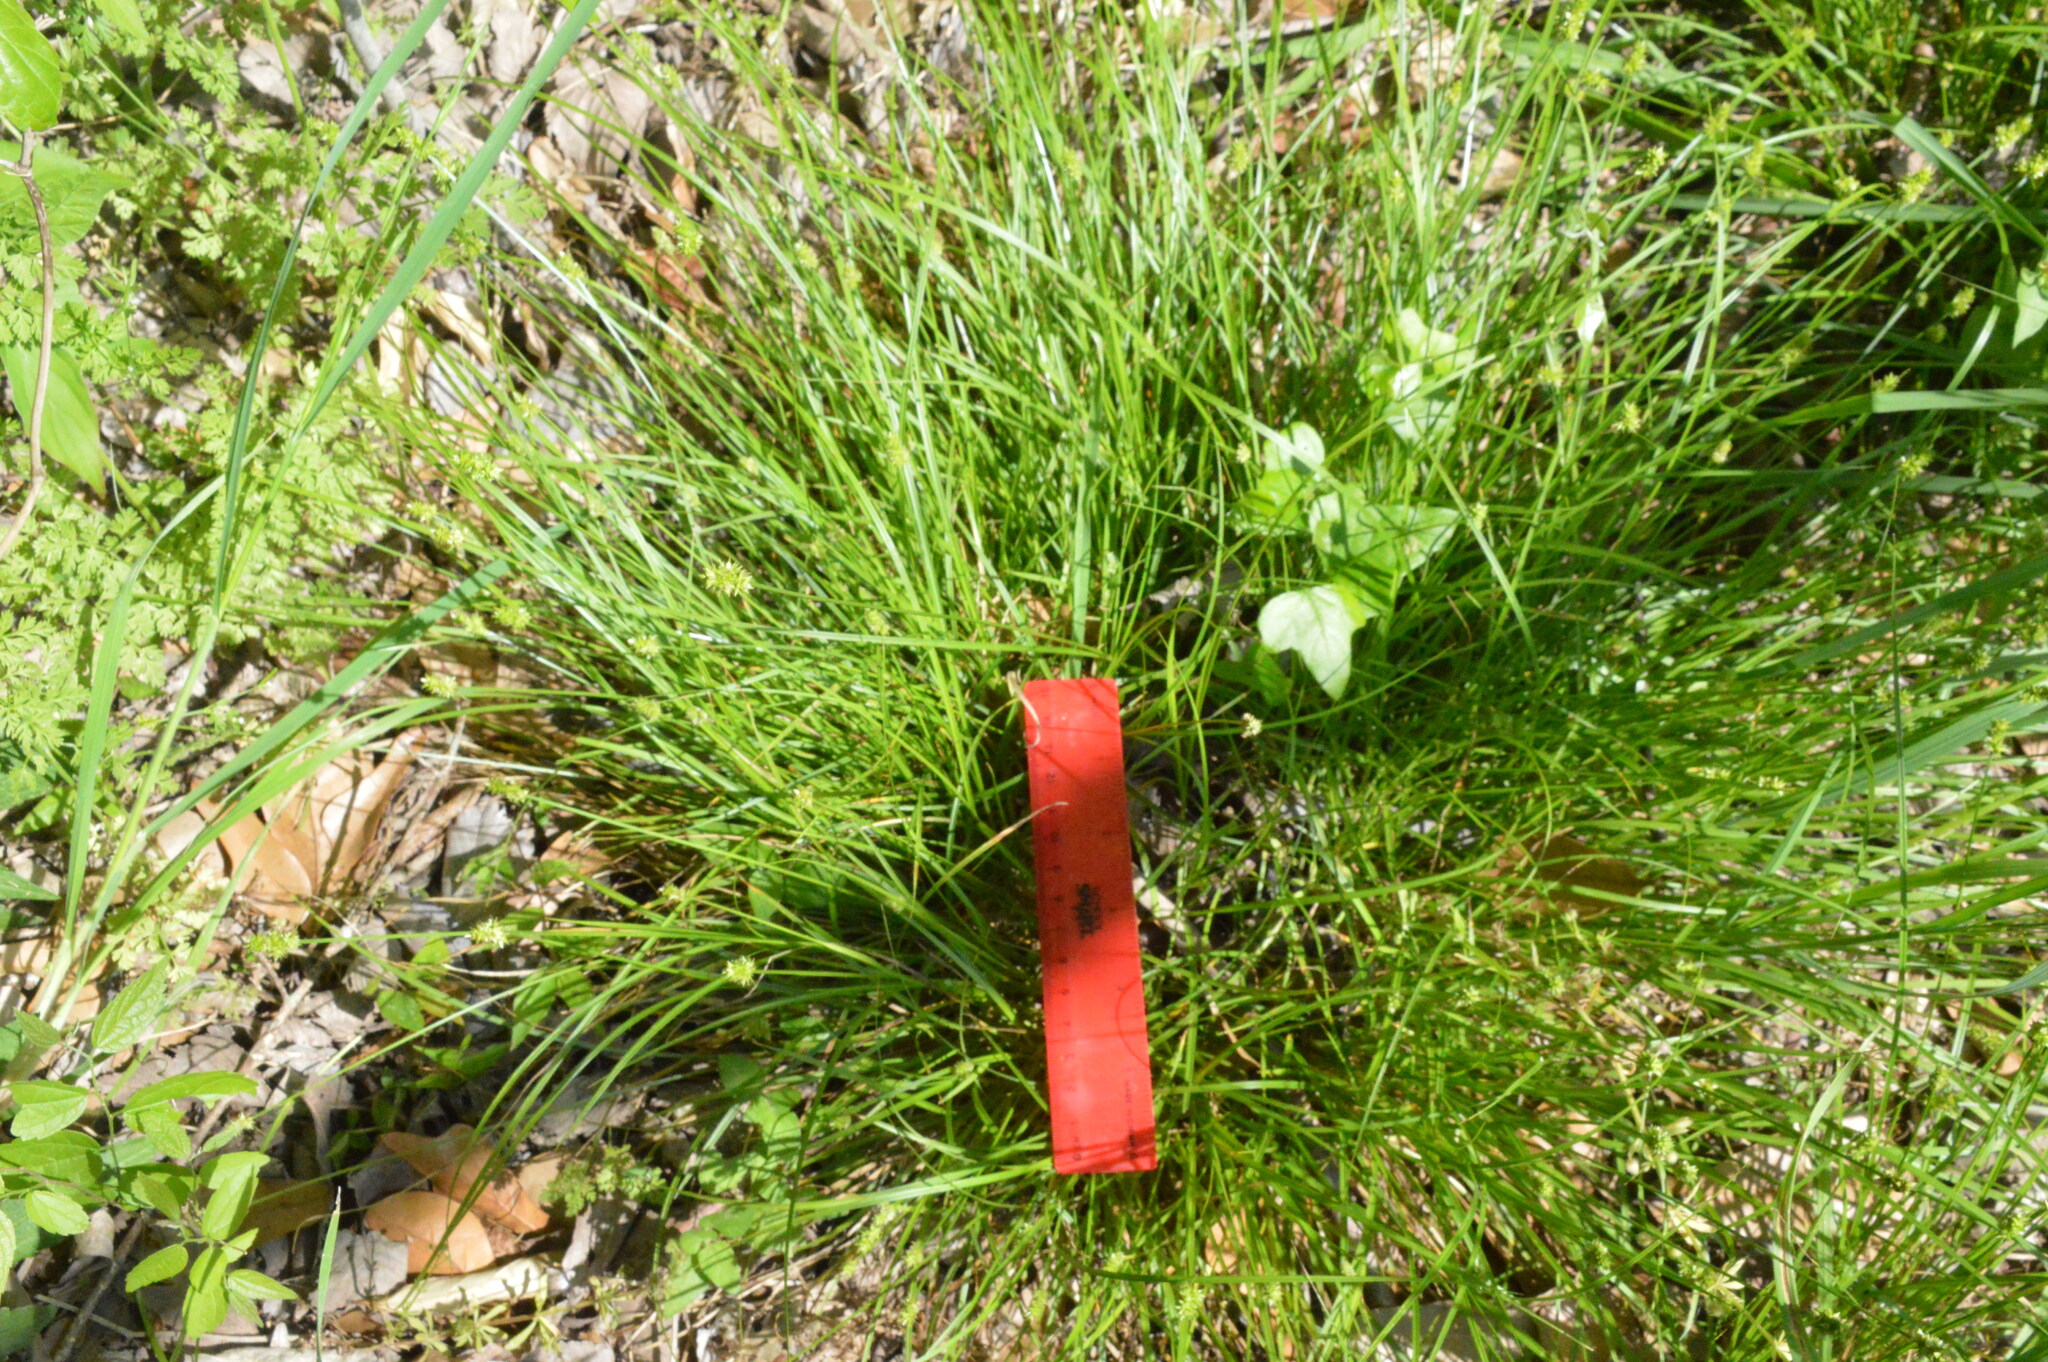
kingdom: Plantae
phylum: Tracheophyta
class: Liliopsida
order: Poales
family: Cyperaceae
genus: Carex
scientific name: Carex leavenworthii
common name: Leavenworth's bracted sedge
